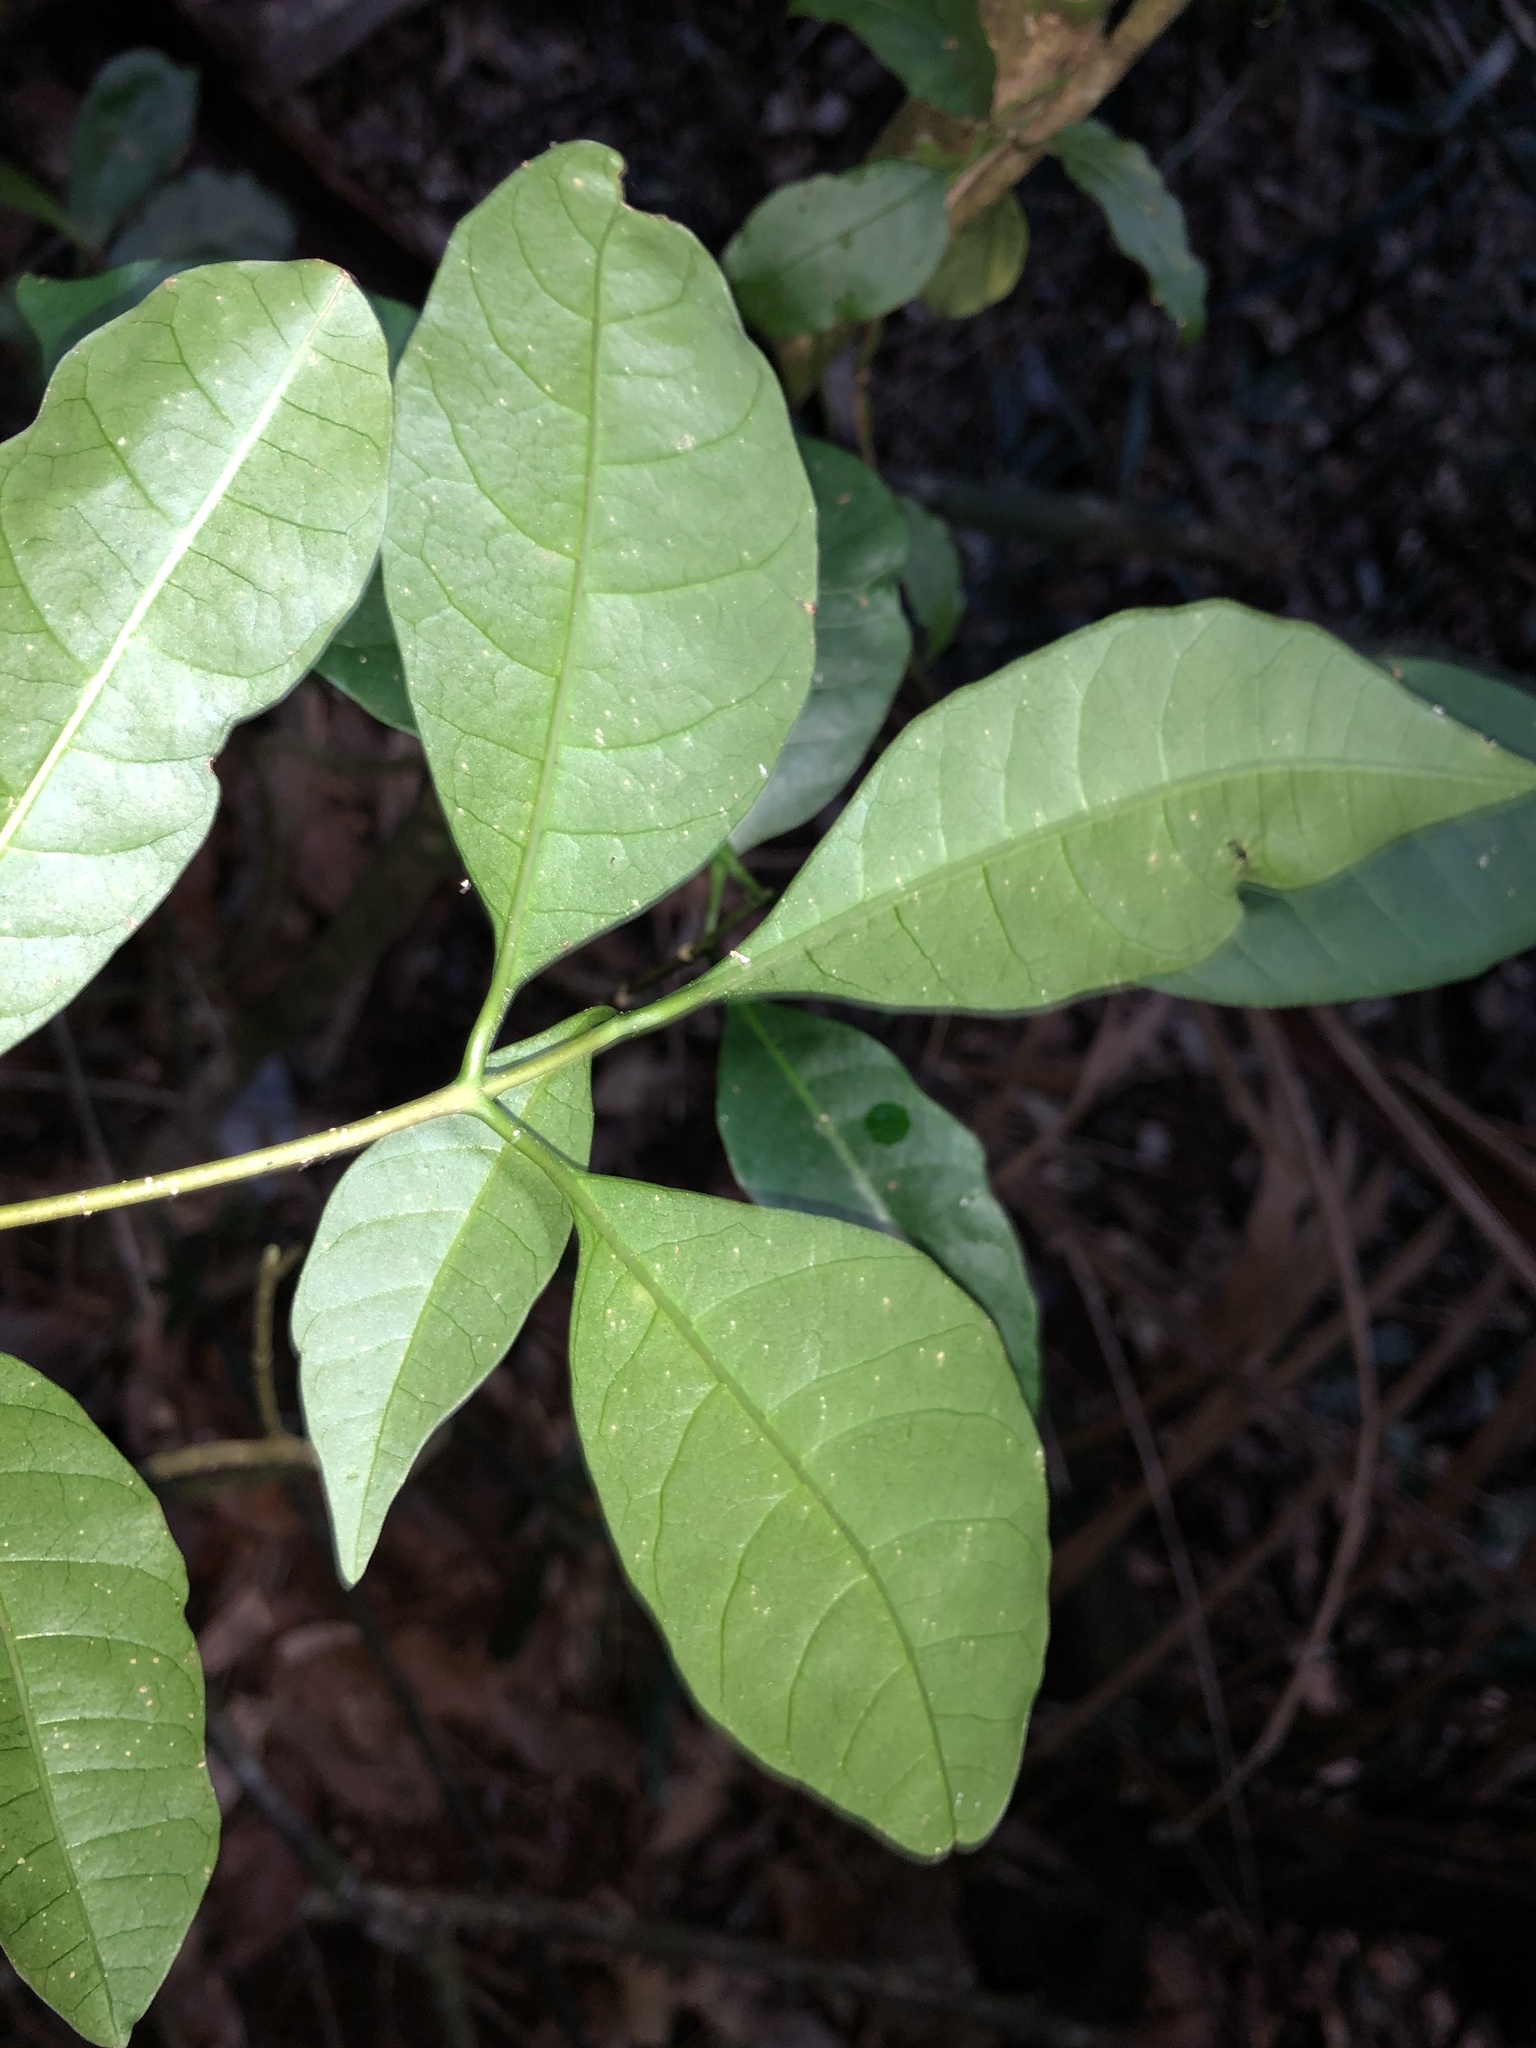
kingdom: Plantae
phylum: Tracheophyta
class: Magnoliopsida
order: Gentianales
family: Apocynaceae
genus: Tabernaemontana
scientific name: Tabernaemontana pandacaqui
